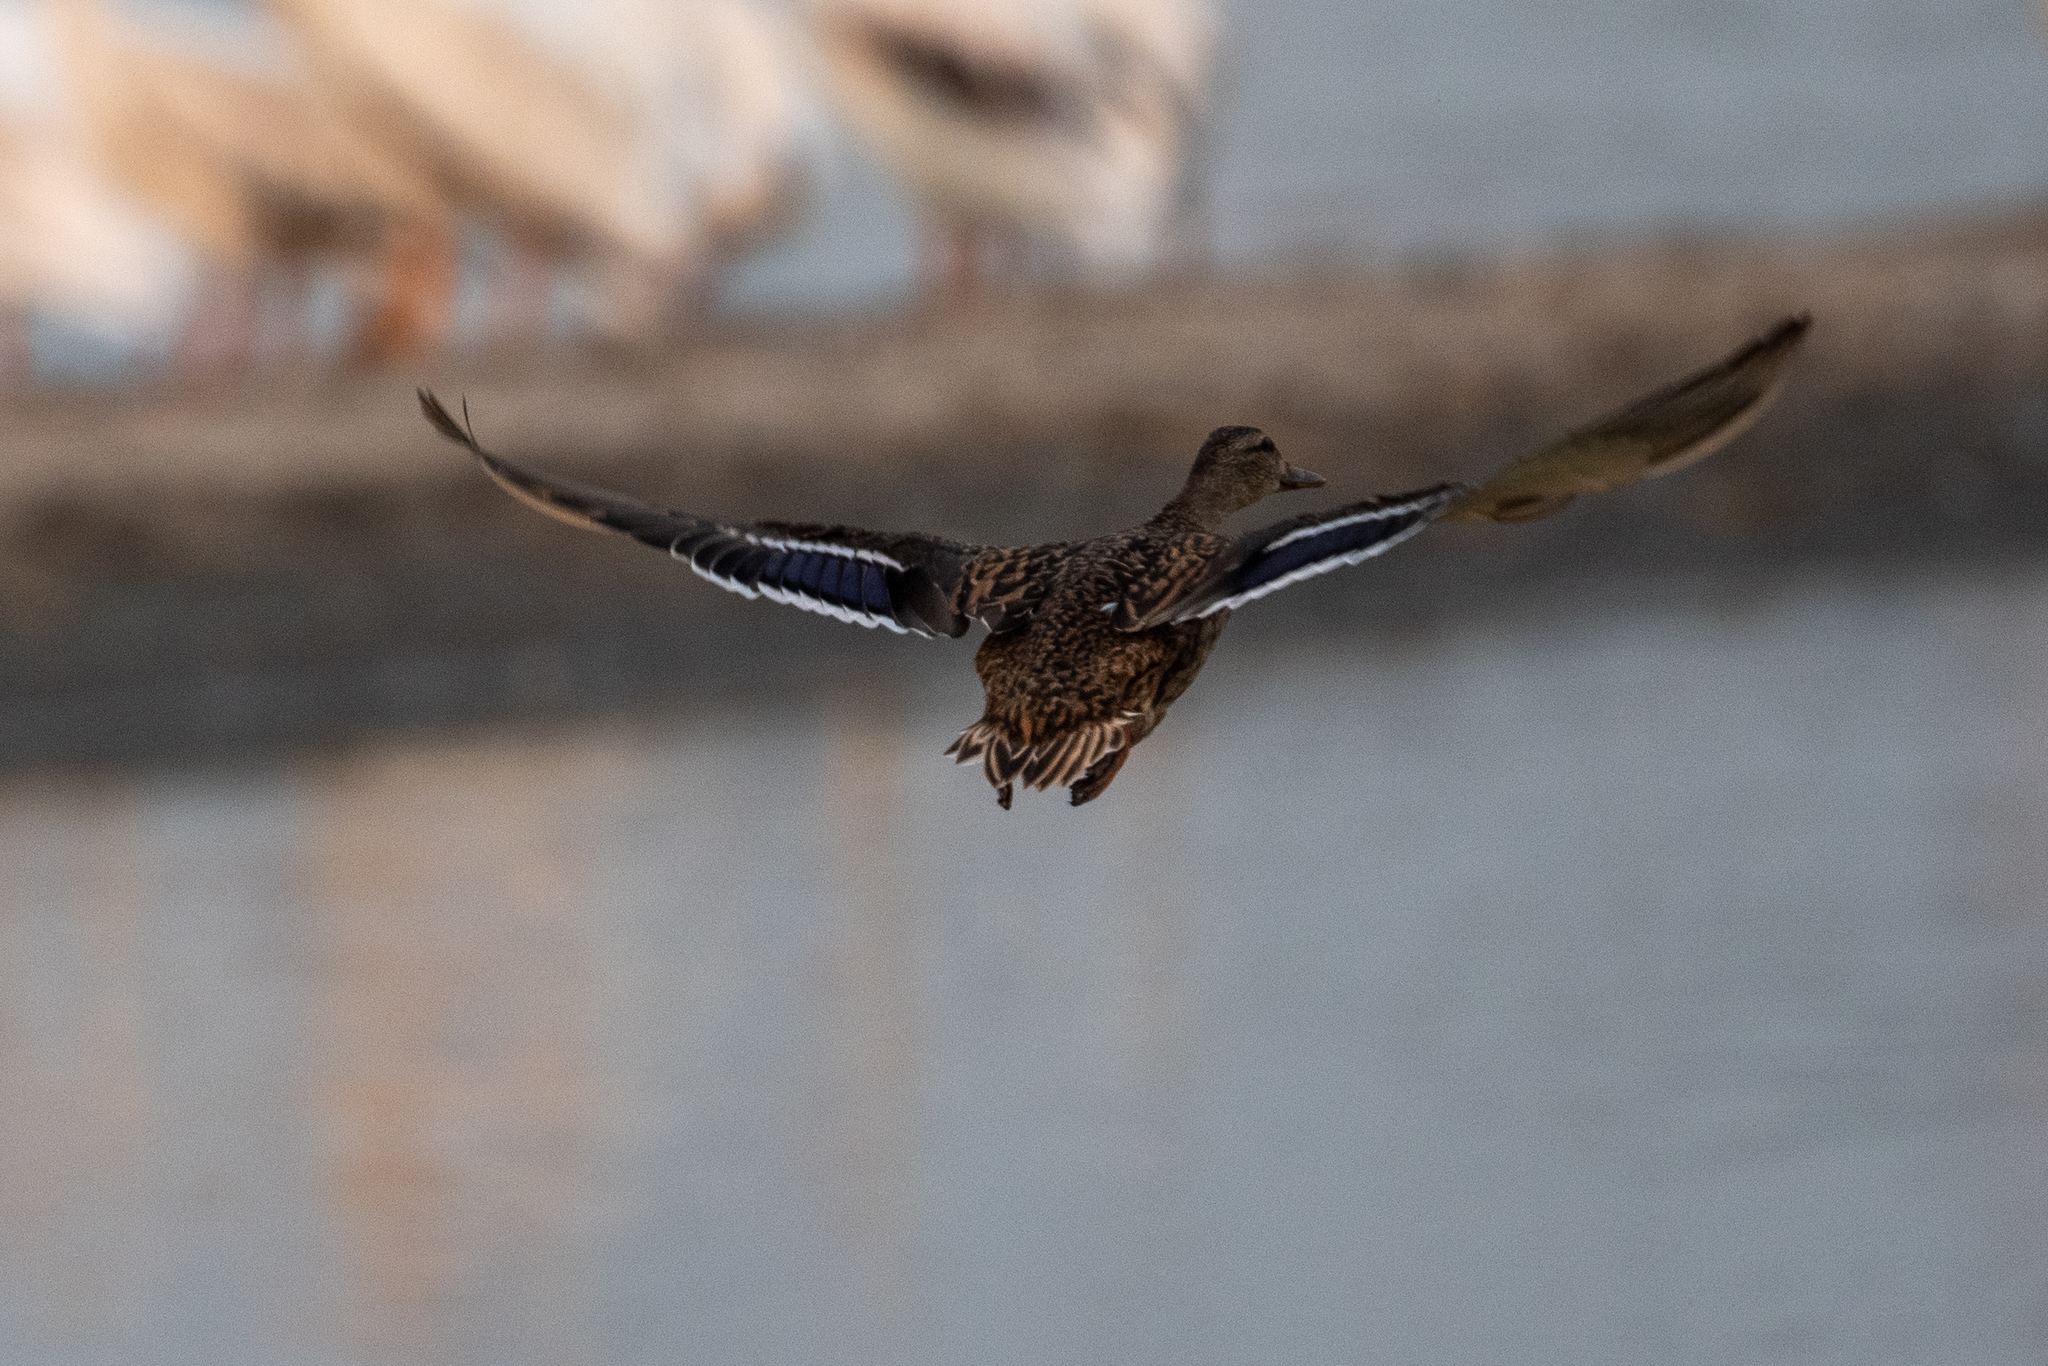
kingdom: Animalia
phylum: Chordata
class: Aves
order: Anseriformes
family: Anatidae
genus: Anas
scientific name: Anas platyrhynchos
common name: Mallard
